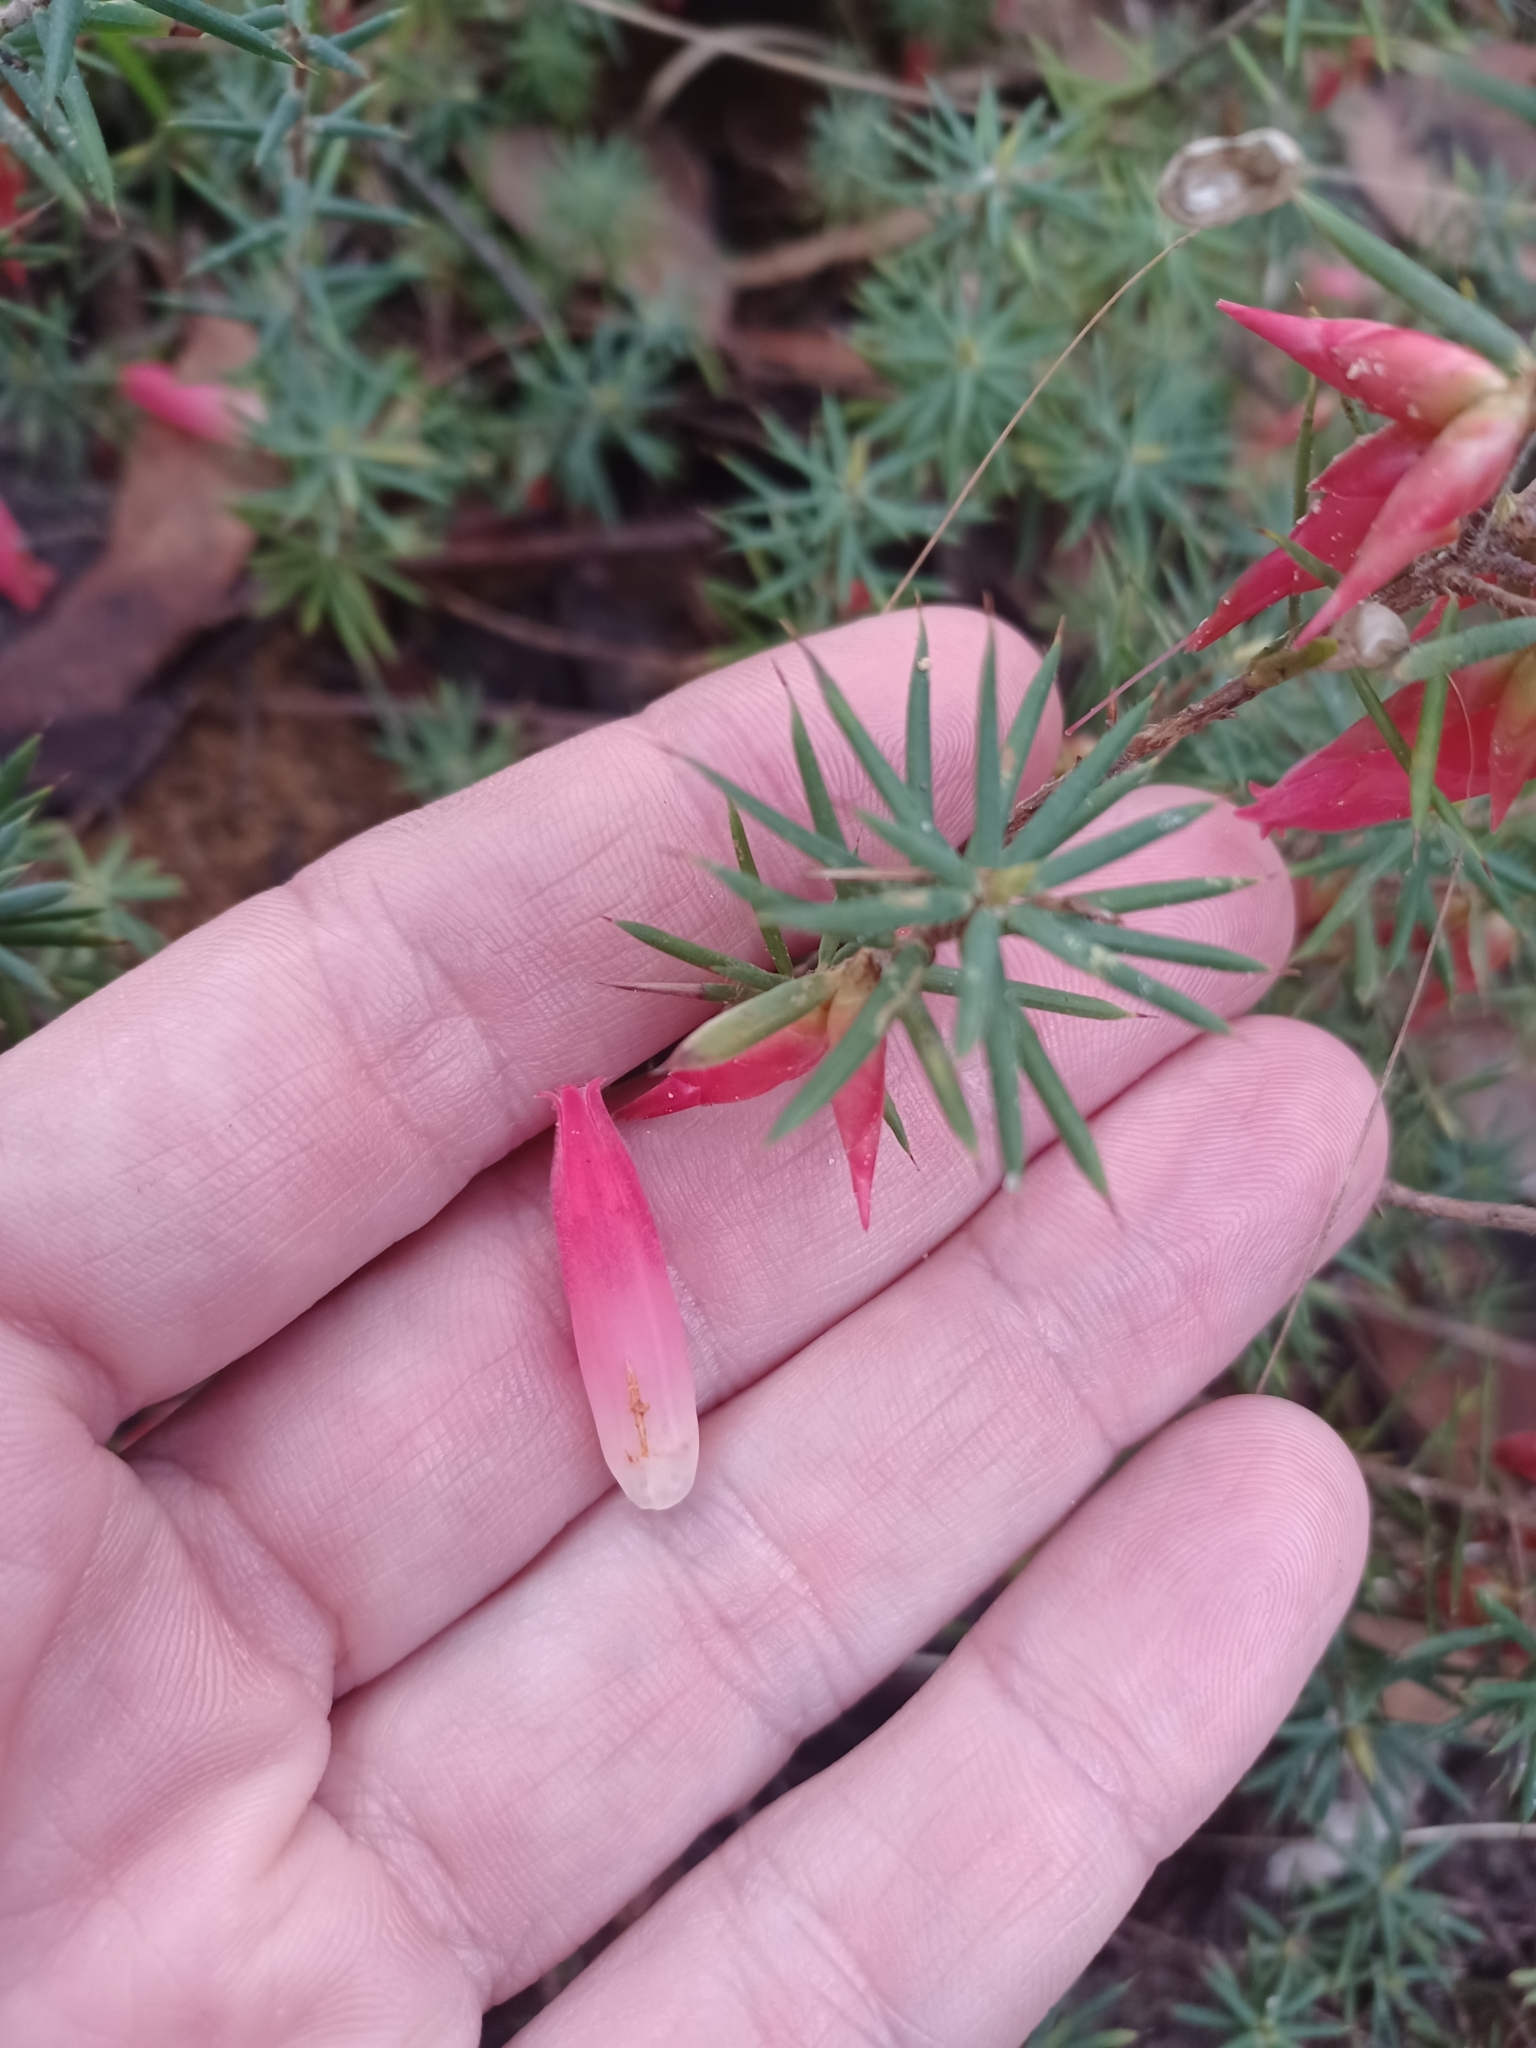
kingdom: Plantae
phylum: Tracheophyta
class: Magnoliopsida
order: Ericales
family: Ericaceae
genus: Stenanthera
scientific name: Stenanthera conostephioides
